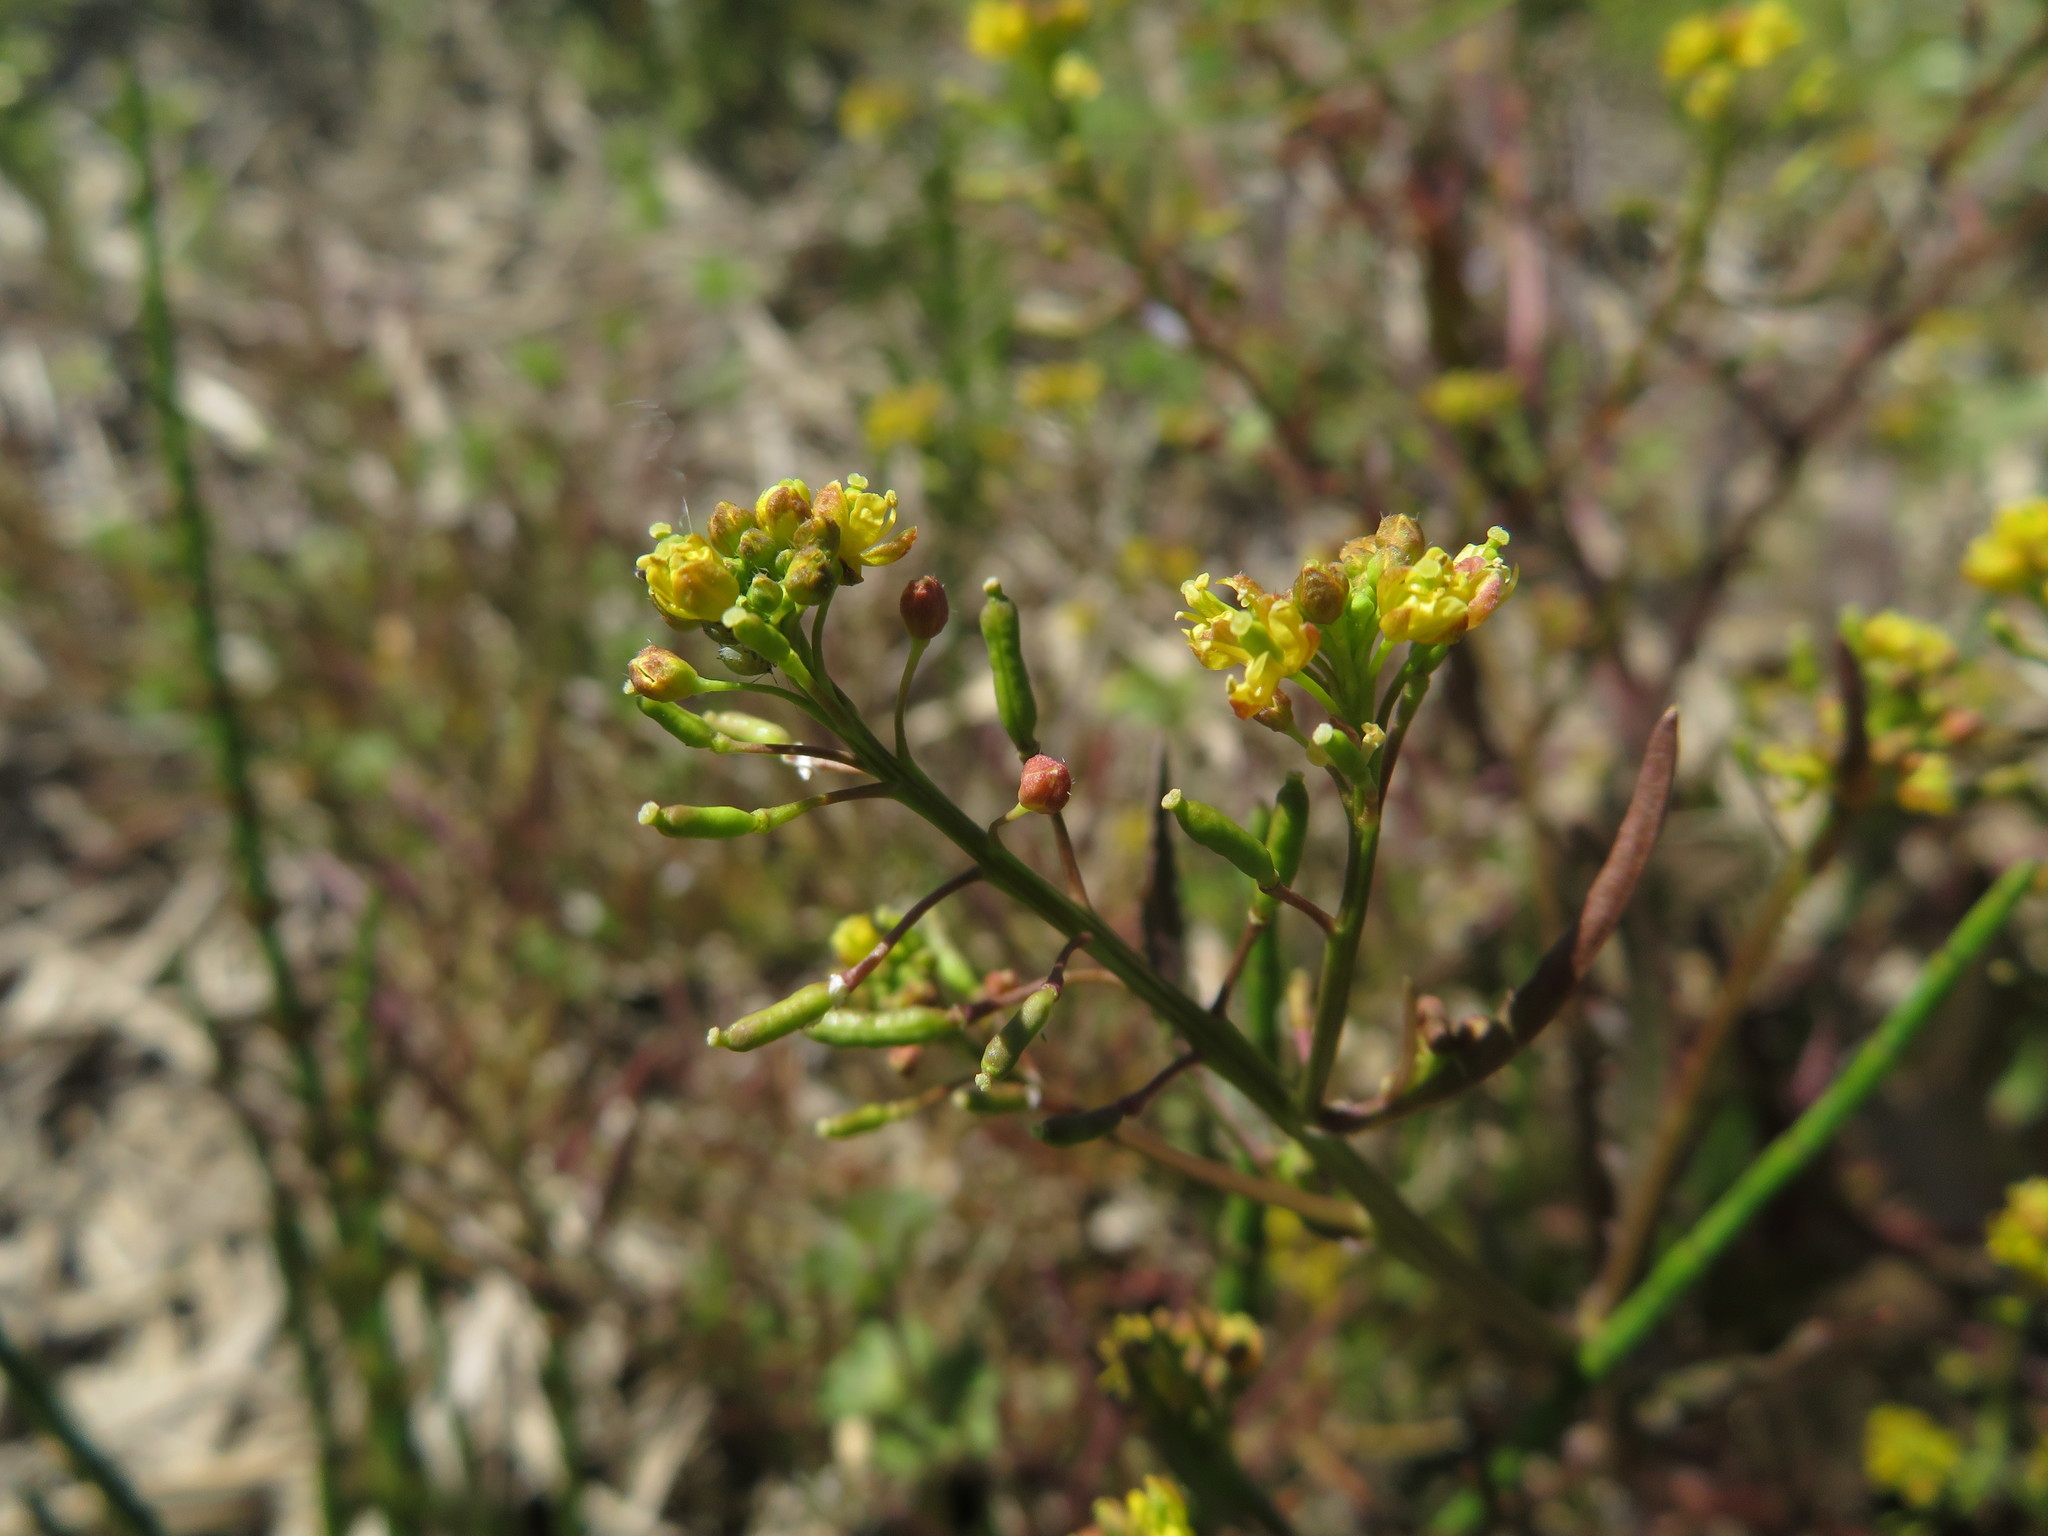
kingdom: Plantae
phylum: Tracheophyta
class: Magnoliopsida
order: Brassicales
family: Brassicaceae
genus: Rorippa
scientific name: Rorippa palustris
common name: Marsh yellow-cress
